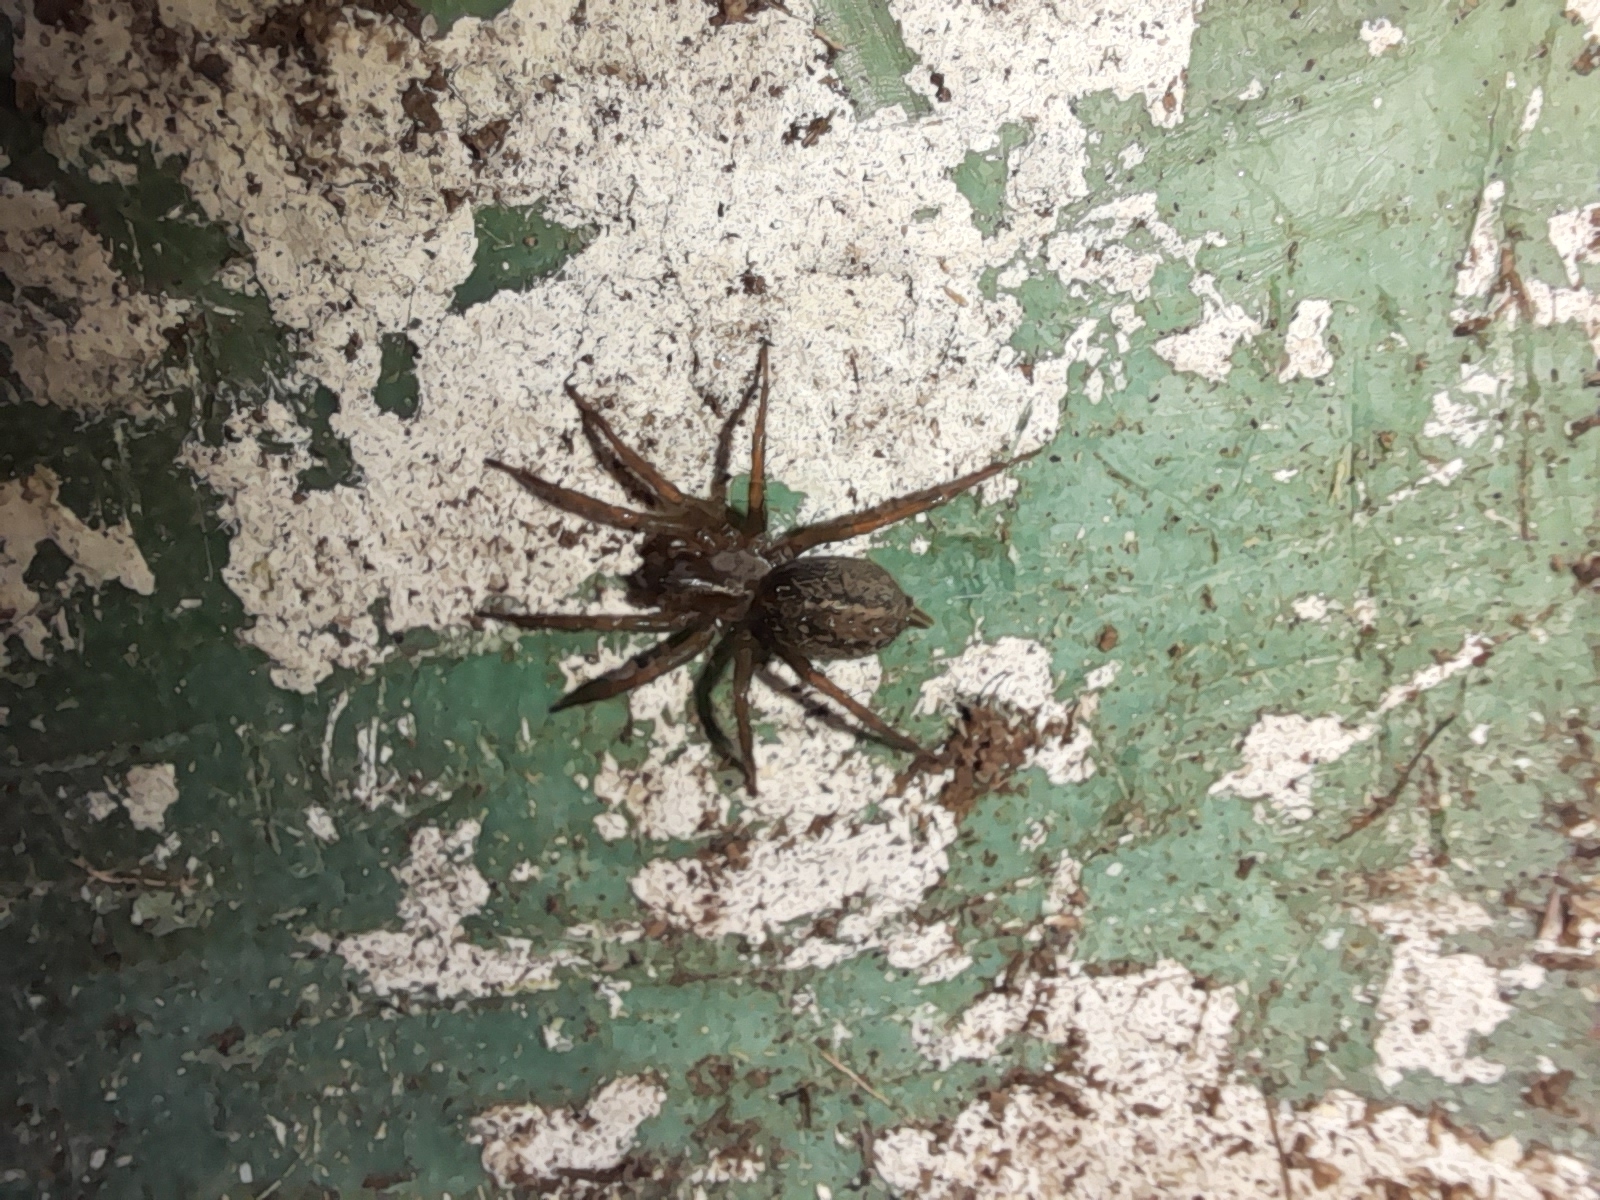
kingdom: Animalia
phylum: Arthropoda
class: Arachnida
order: Araneae
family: Agelenidae
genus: Lycosoides
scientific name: Lycosoides coarctata
